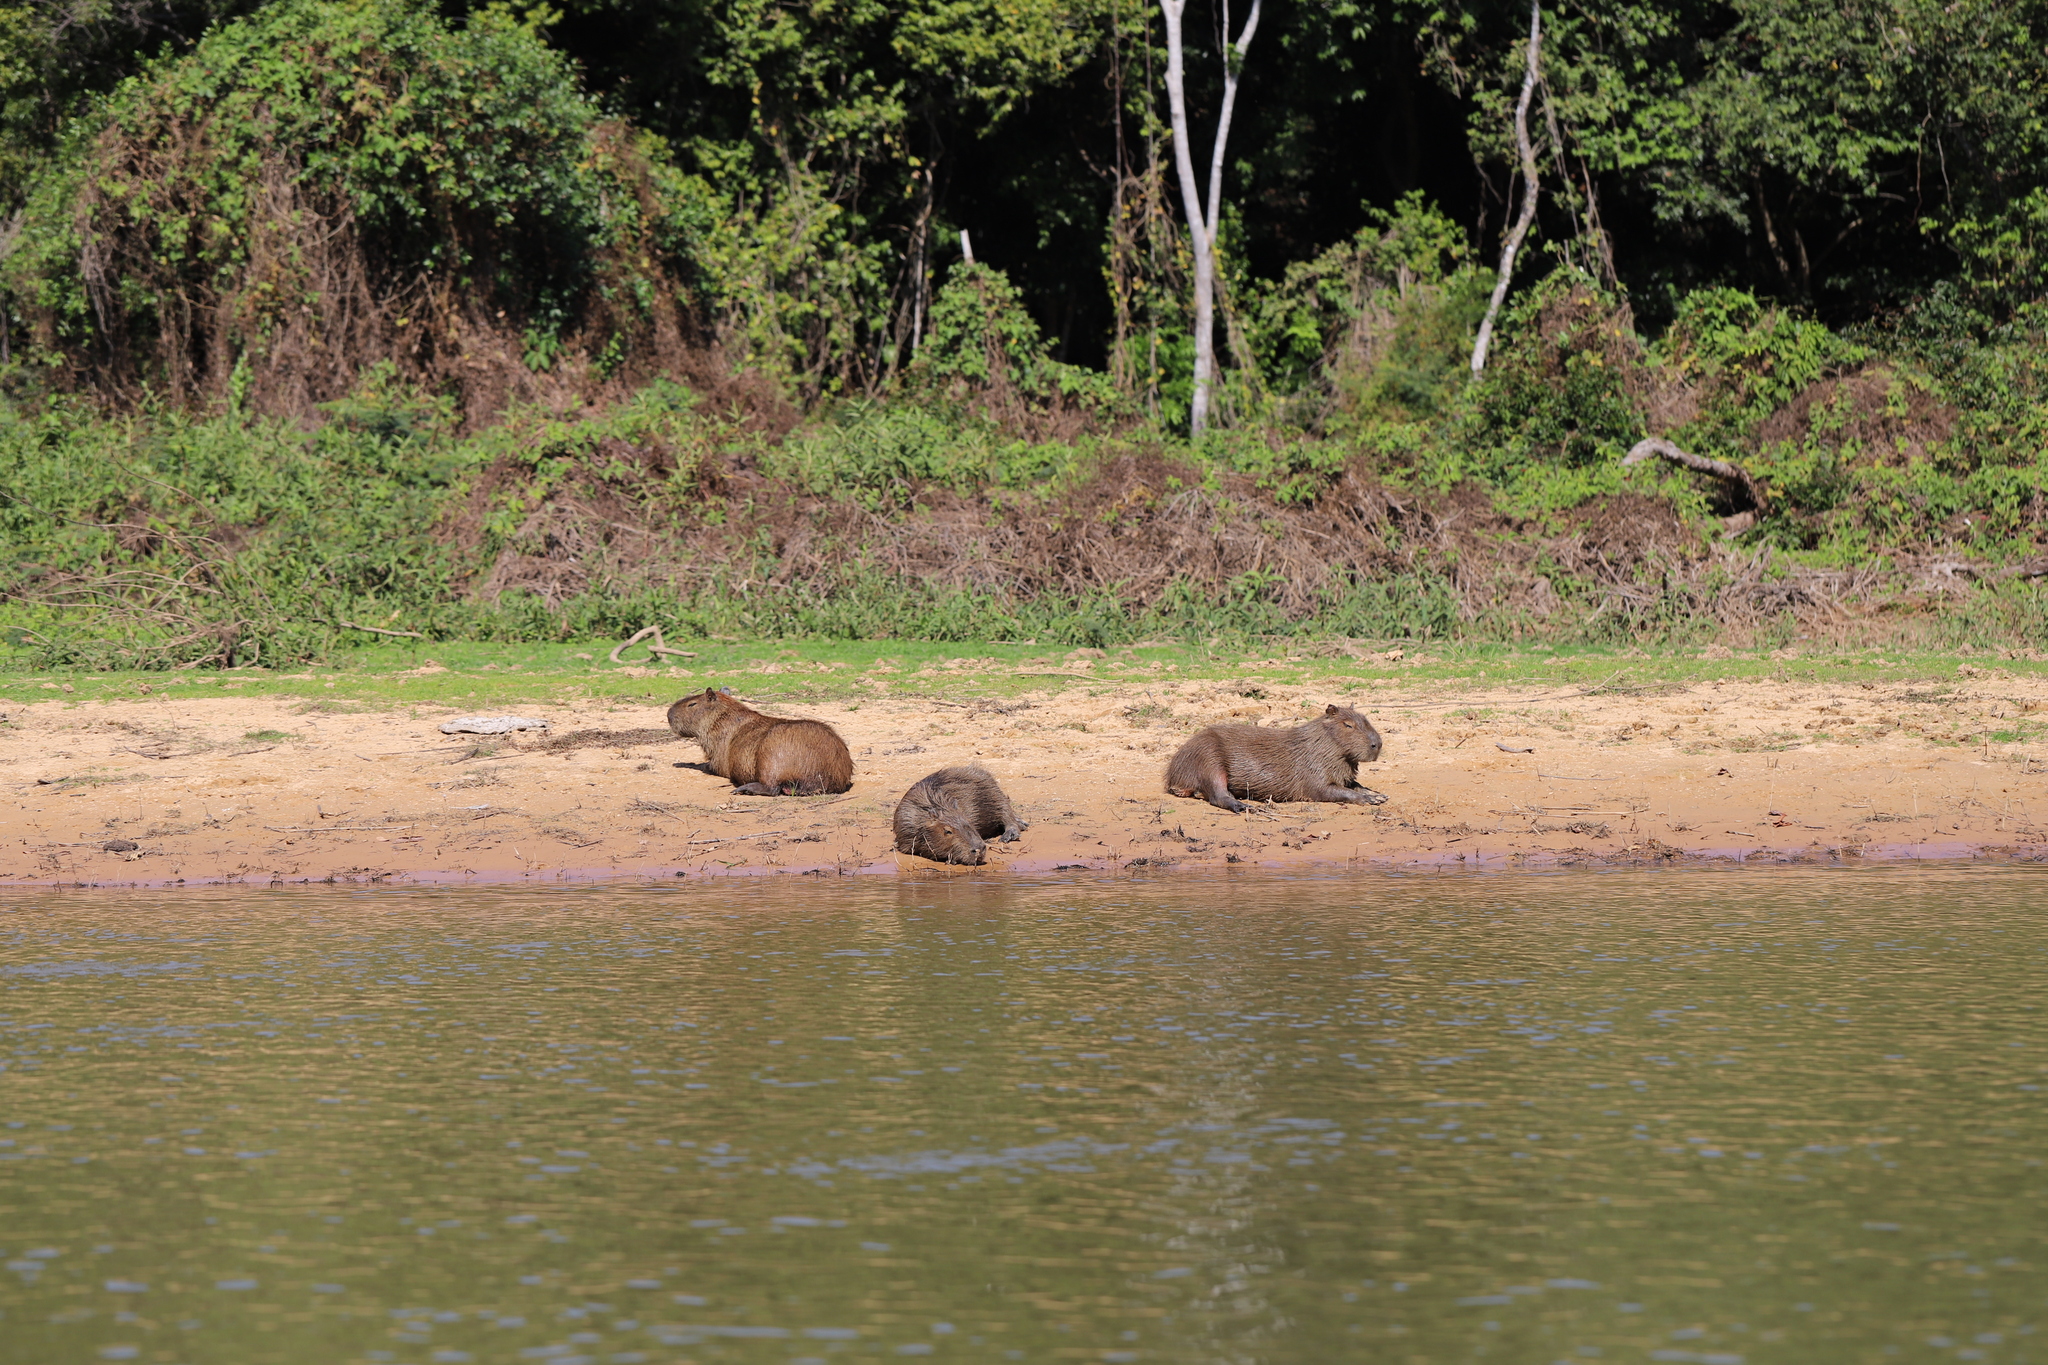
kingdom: Animalia
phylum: Chordata
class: Mammalia
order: Rodentia
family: Caviidae
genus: Hydrochoerus
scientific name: Hydrochoerus hydrochaeris
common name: Capybara
